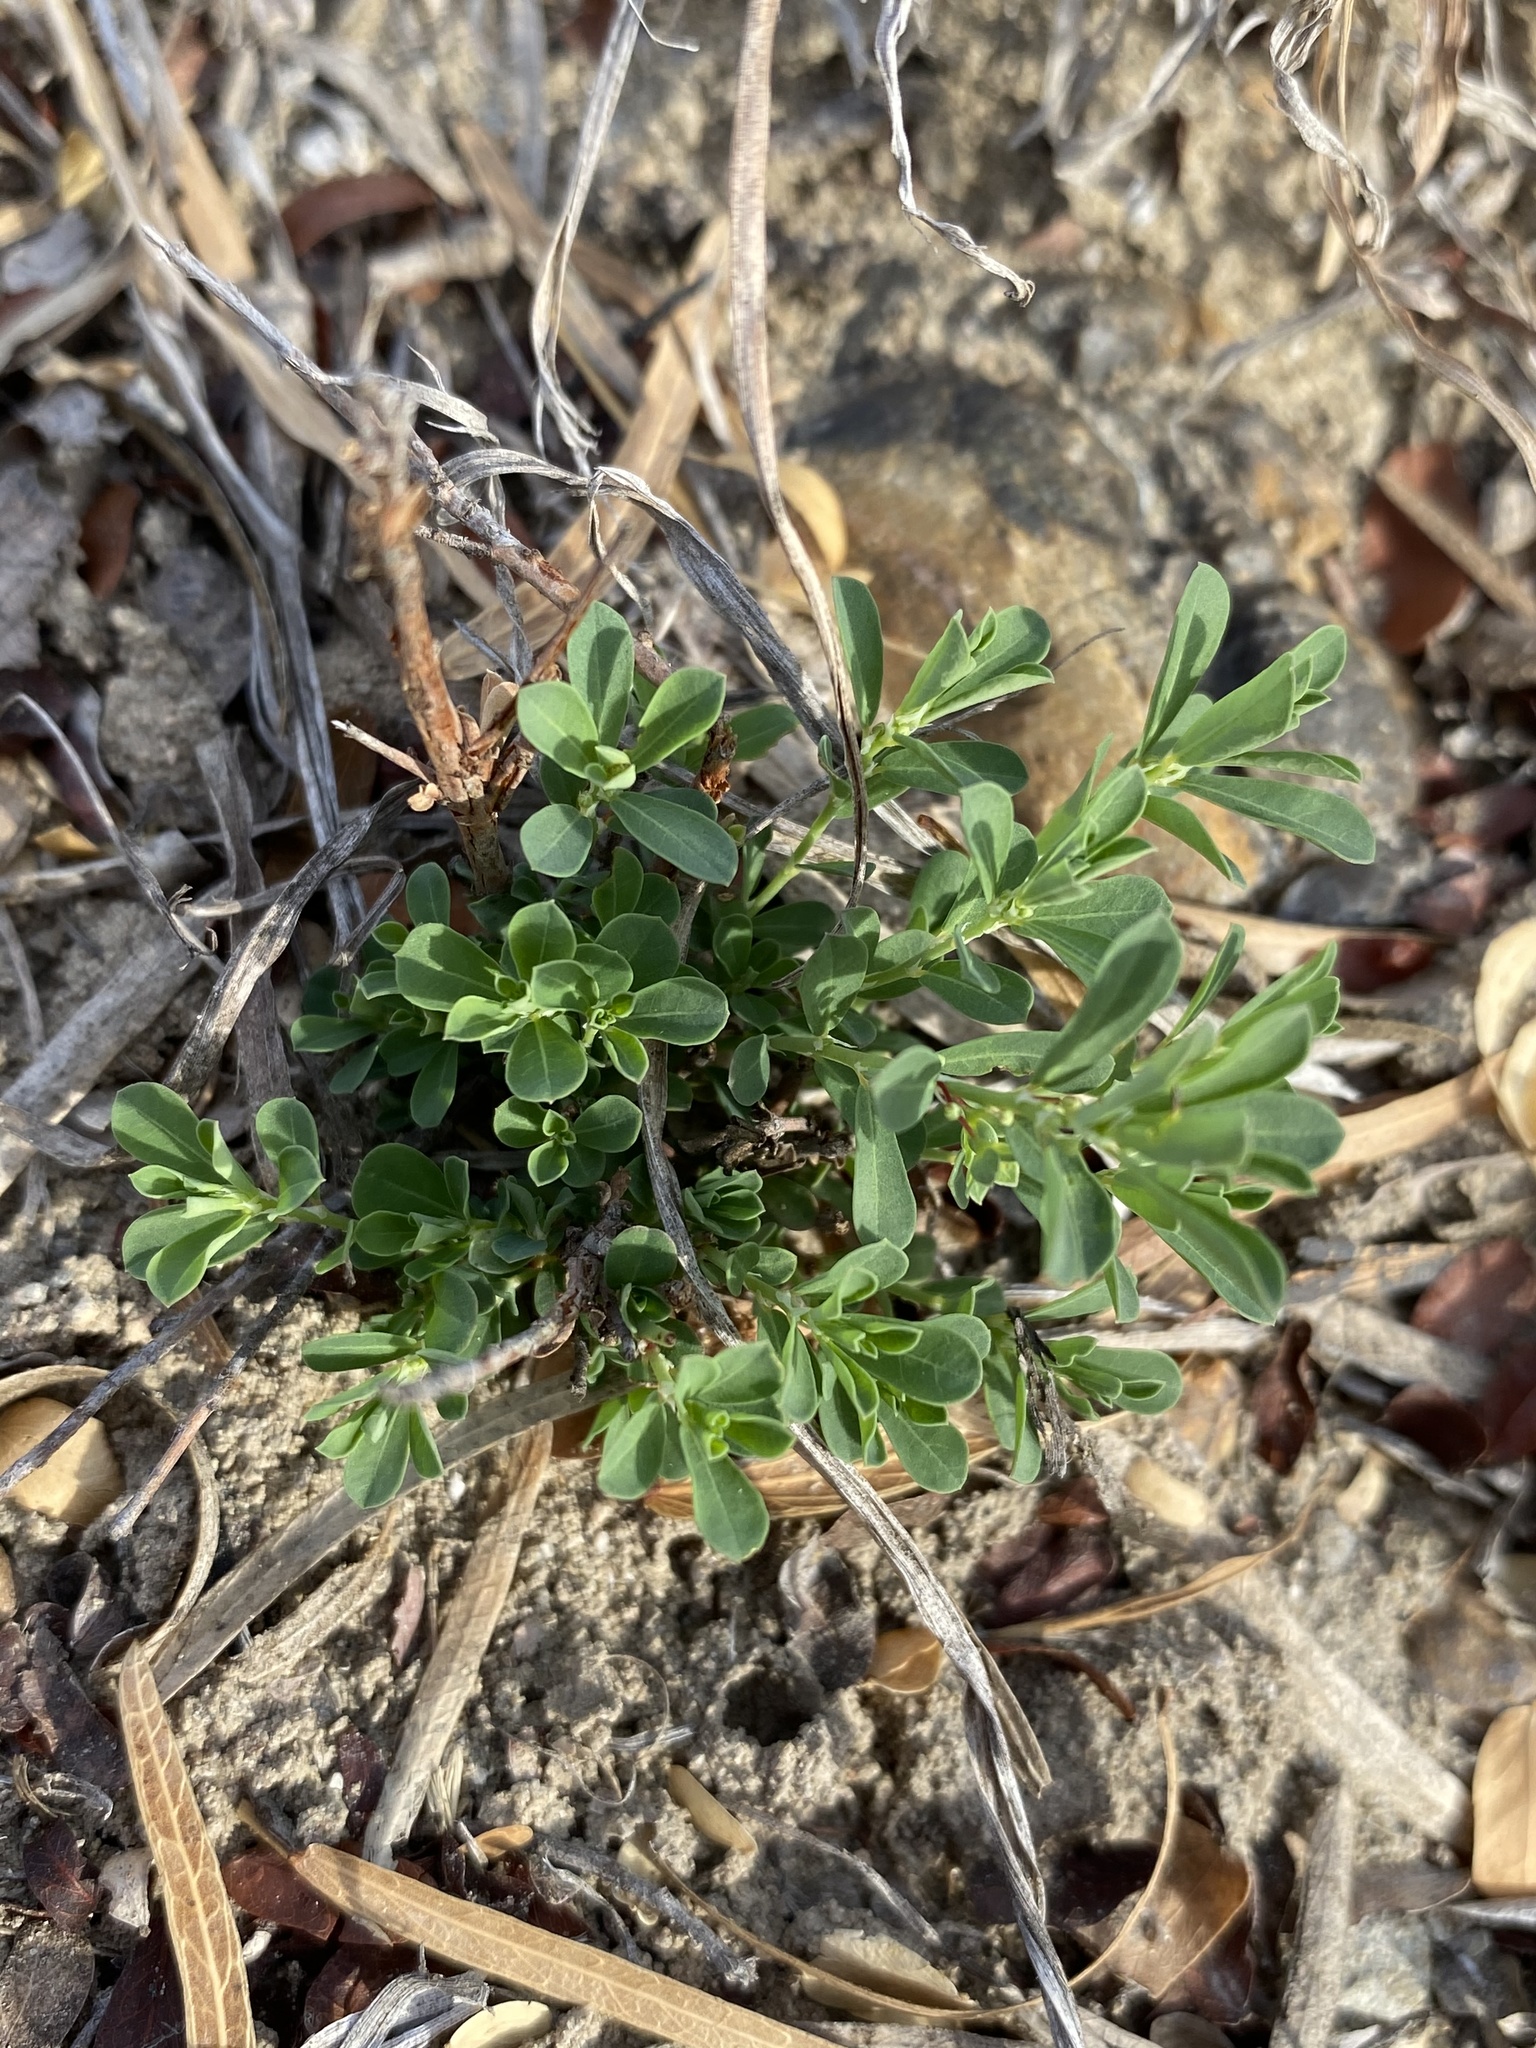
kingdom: Plantae
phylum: Tracheophyta
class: Magnoliopsida
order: Malpighiales
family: Phyllanthaceae
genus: Phyllanthus
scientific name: Phyllanthus polygonoides
